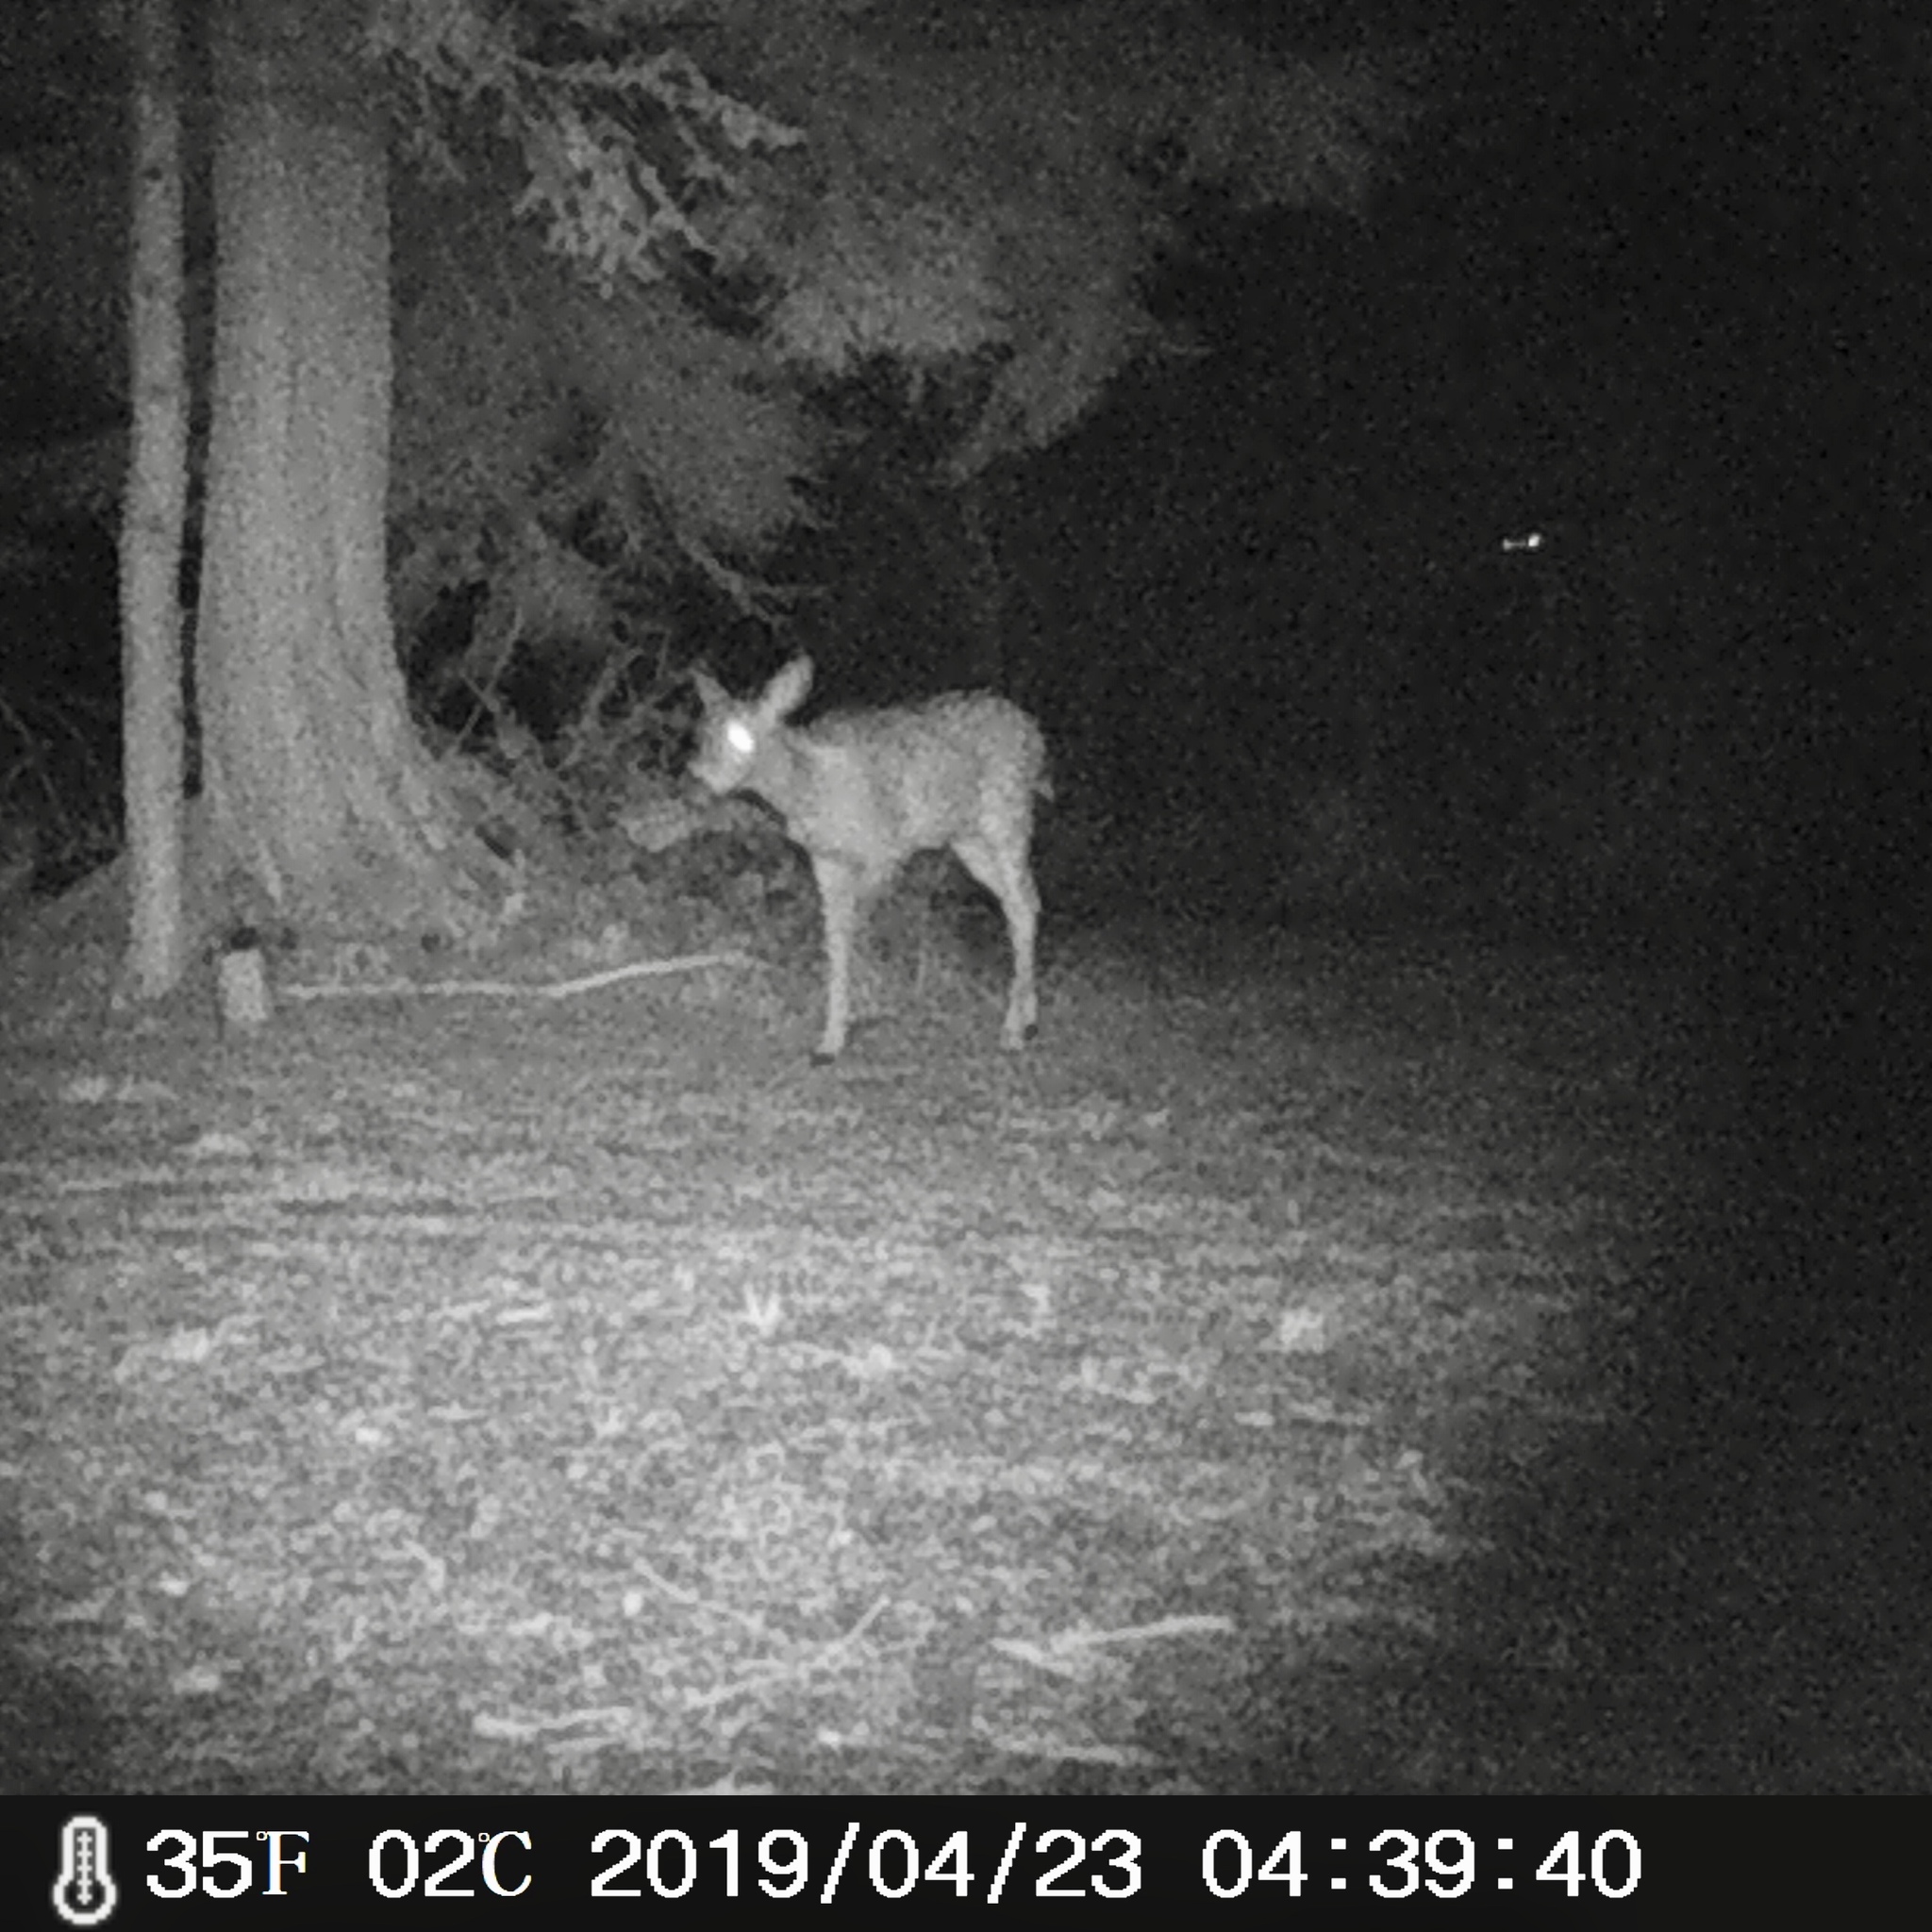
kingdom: Animalia
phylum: Chordata
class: Mammalia
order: Artiodactyla
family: Cervidae
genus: Odocoileus
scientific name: Odocoileus hemionus
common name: Mule deer
